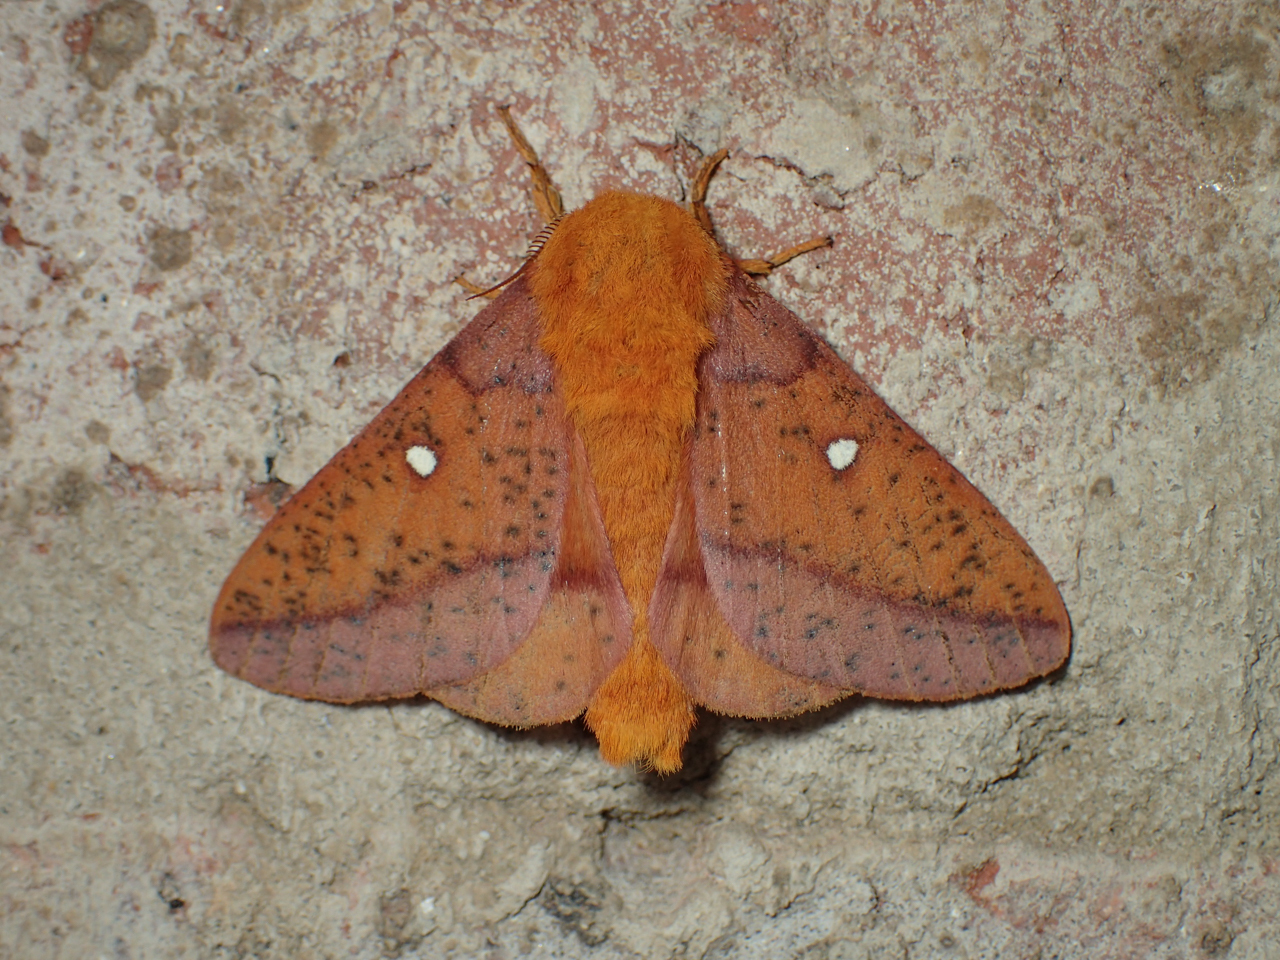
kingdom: Animalia
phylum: Arthropoda
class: Insecta
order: Lepidoptera
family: Saturniidae
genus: Anisota
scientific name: Anisota stigma
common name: Spiny oakworm moth
